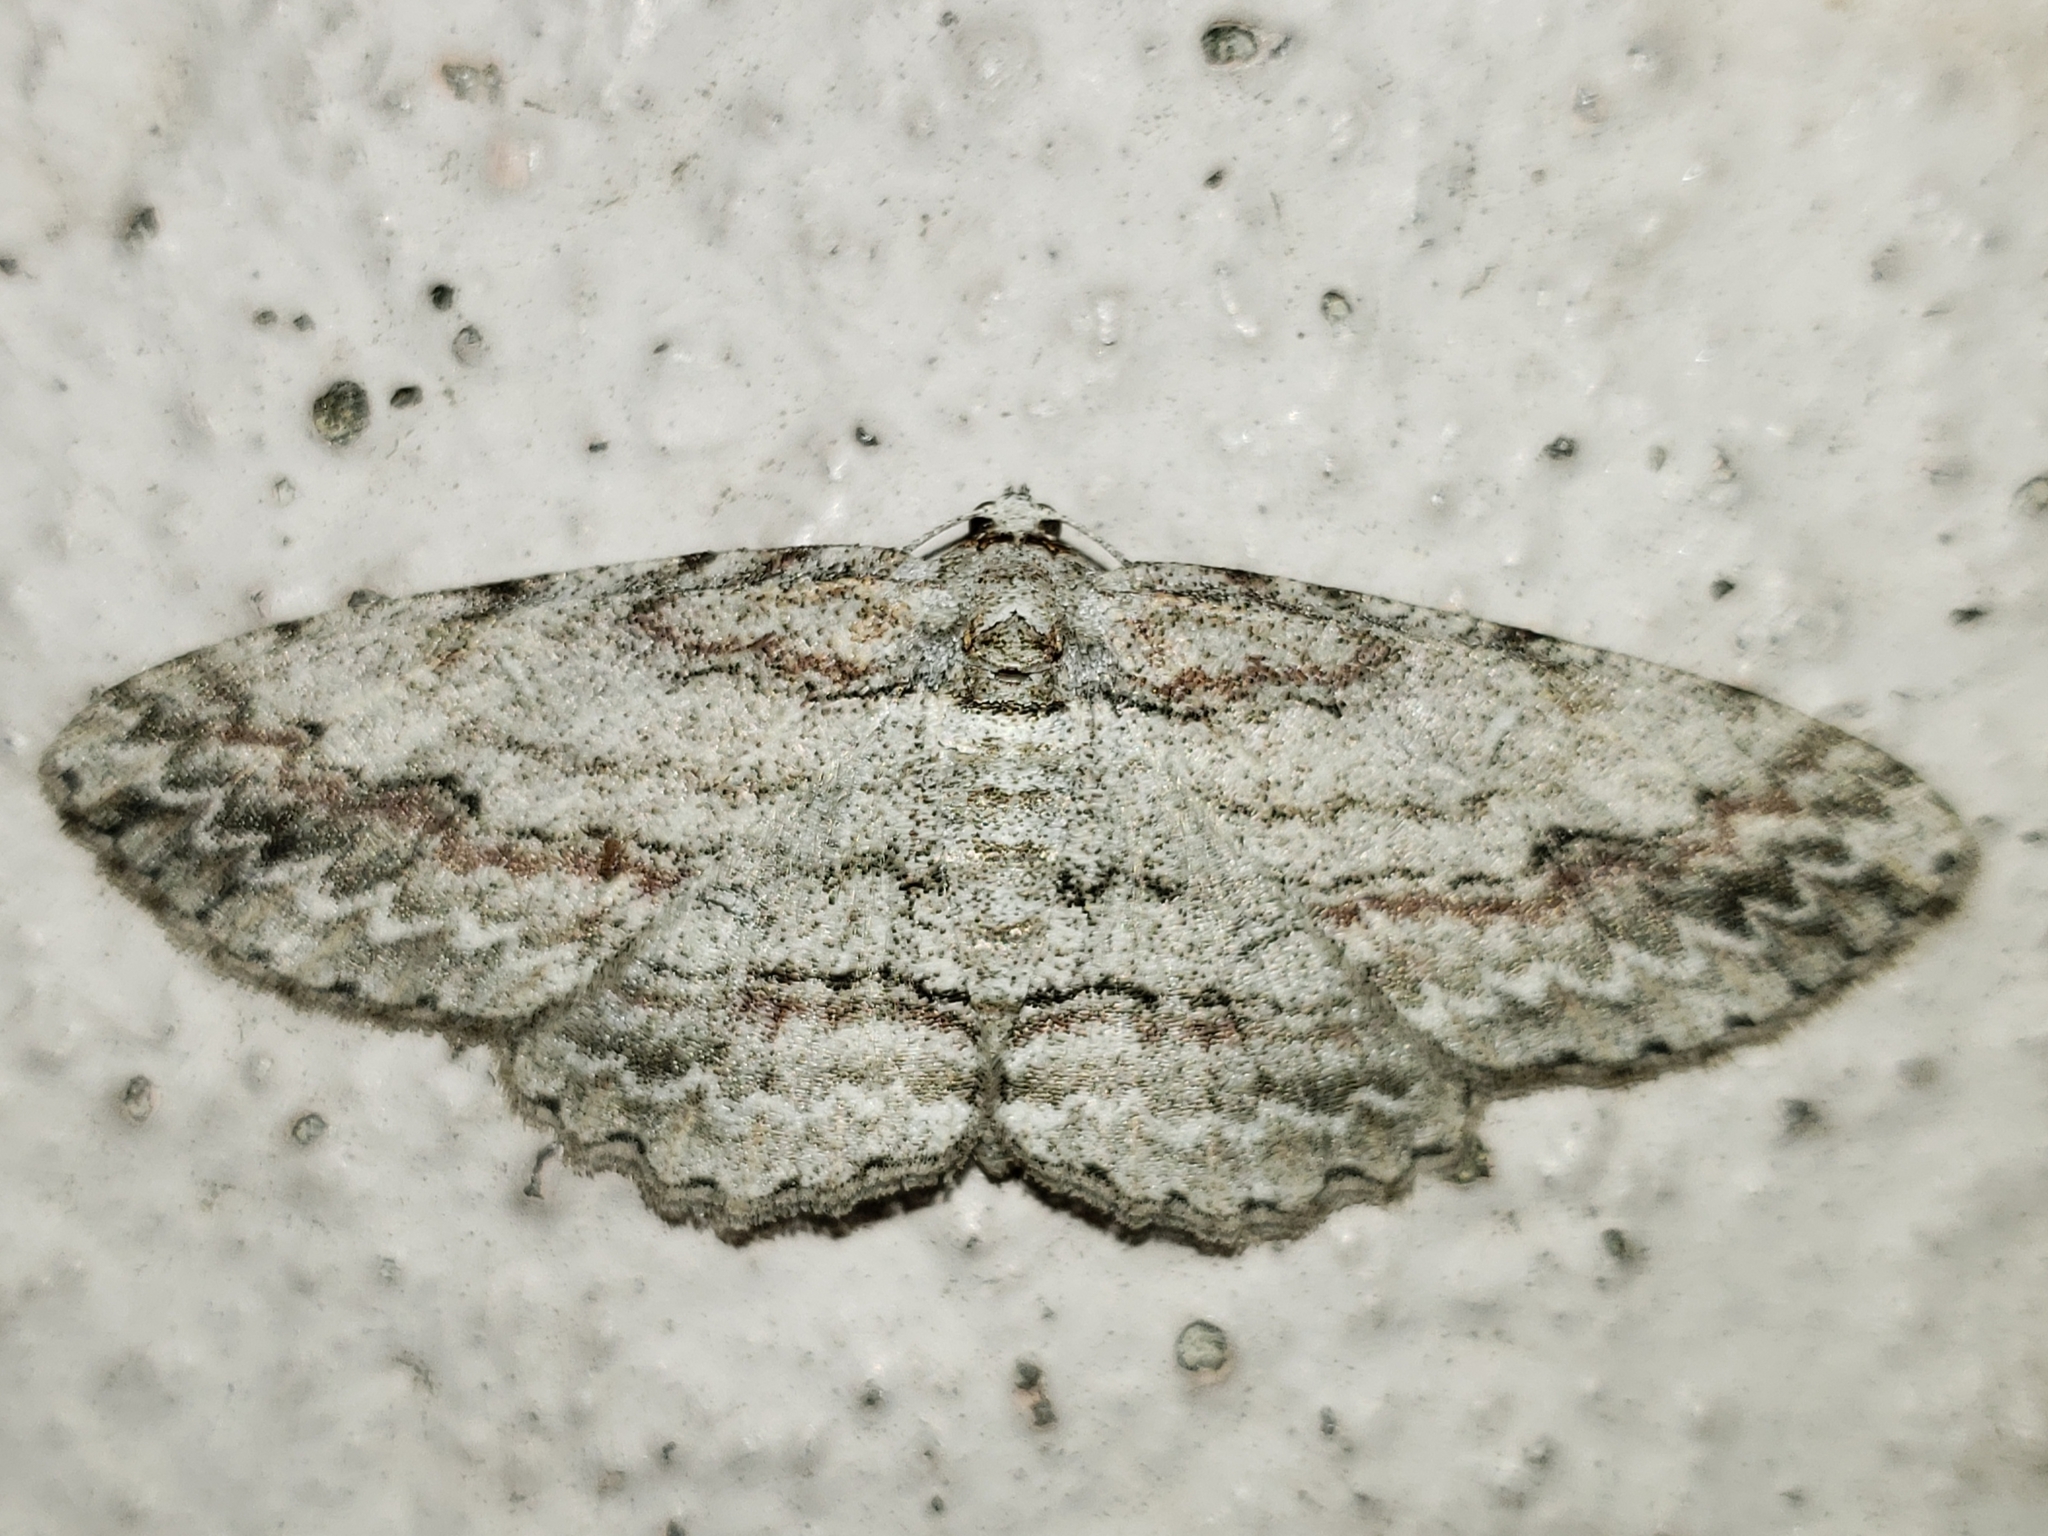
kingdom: Animalia
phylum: Arthropoda
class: Insecta
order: Lepidoptera
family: Geometridae
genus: Iridopsis
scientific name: Iridopsis pergracilis
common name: Cypress looper
